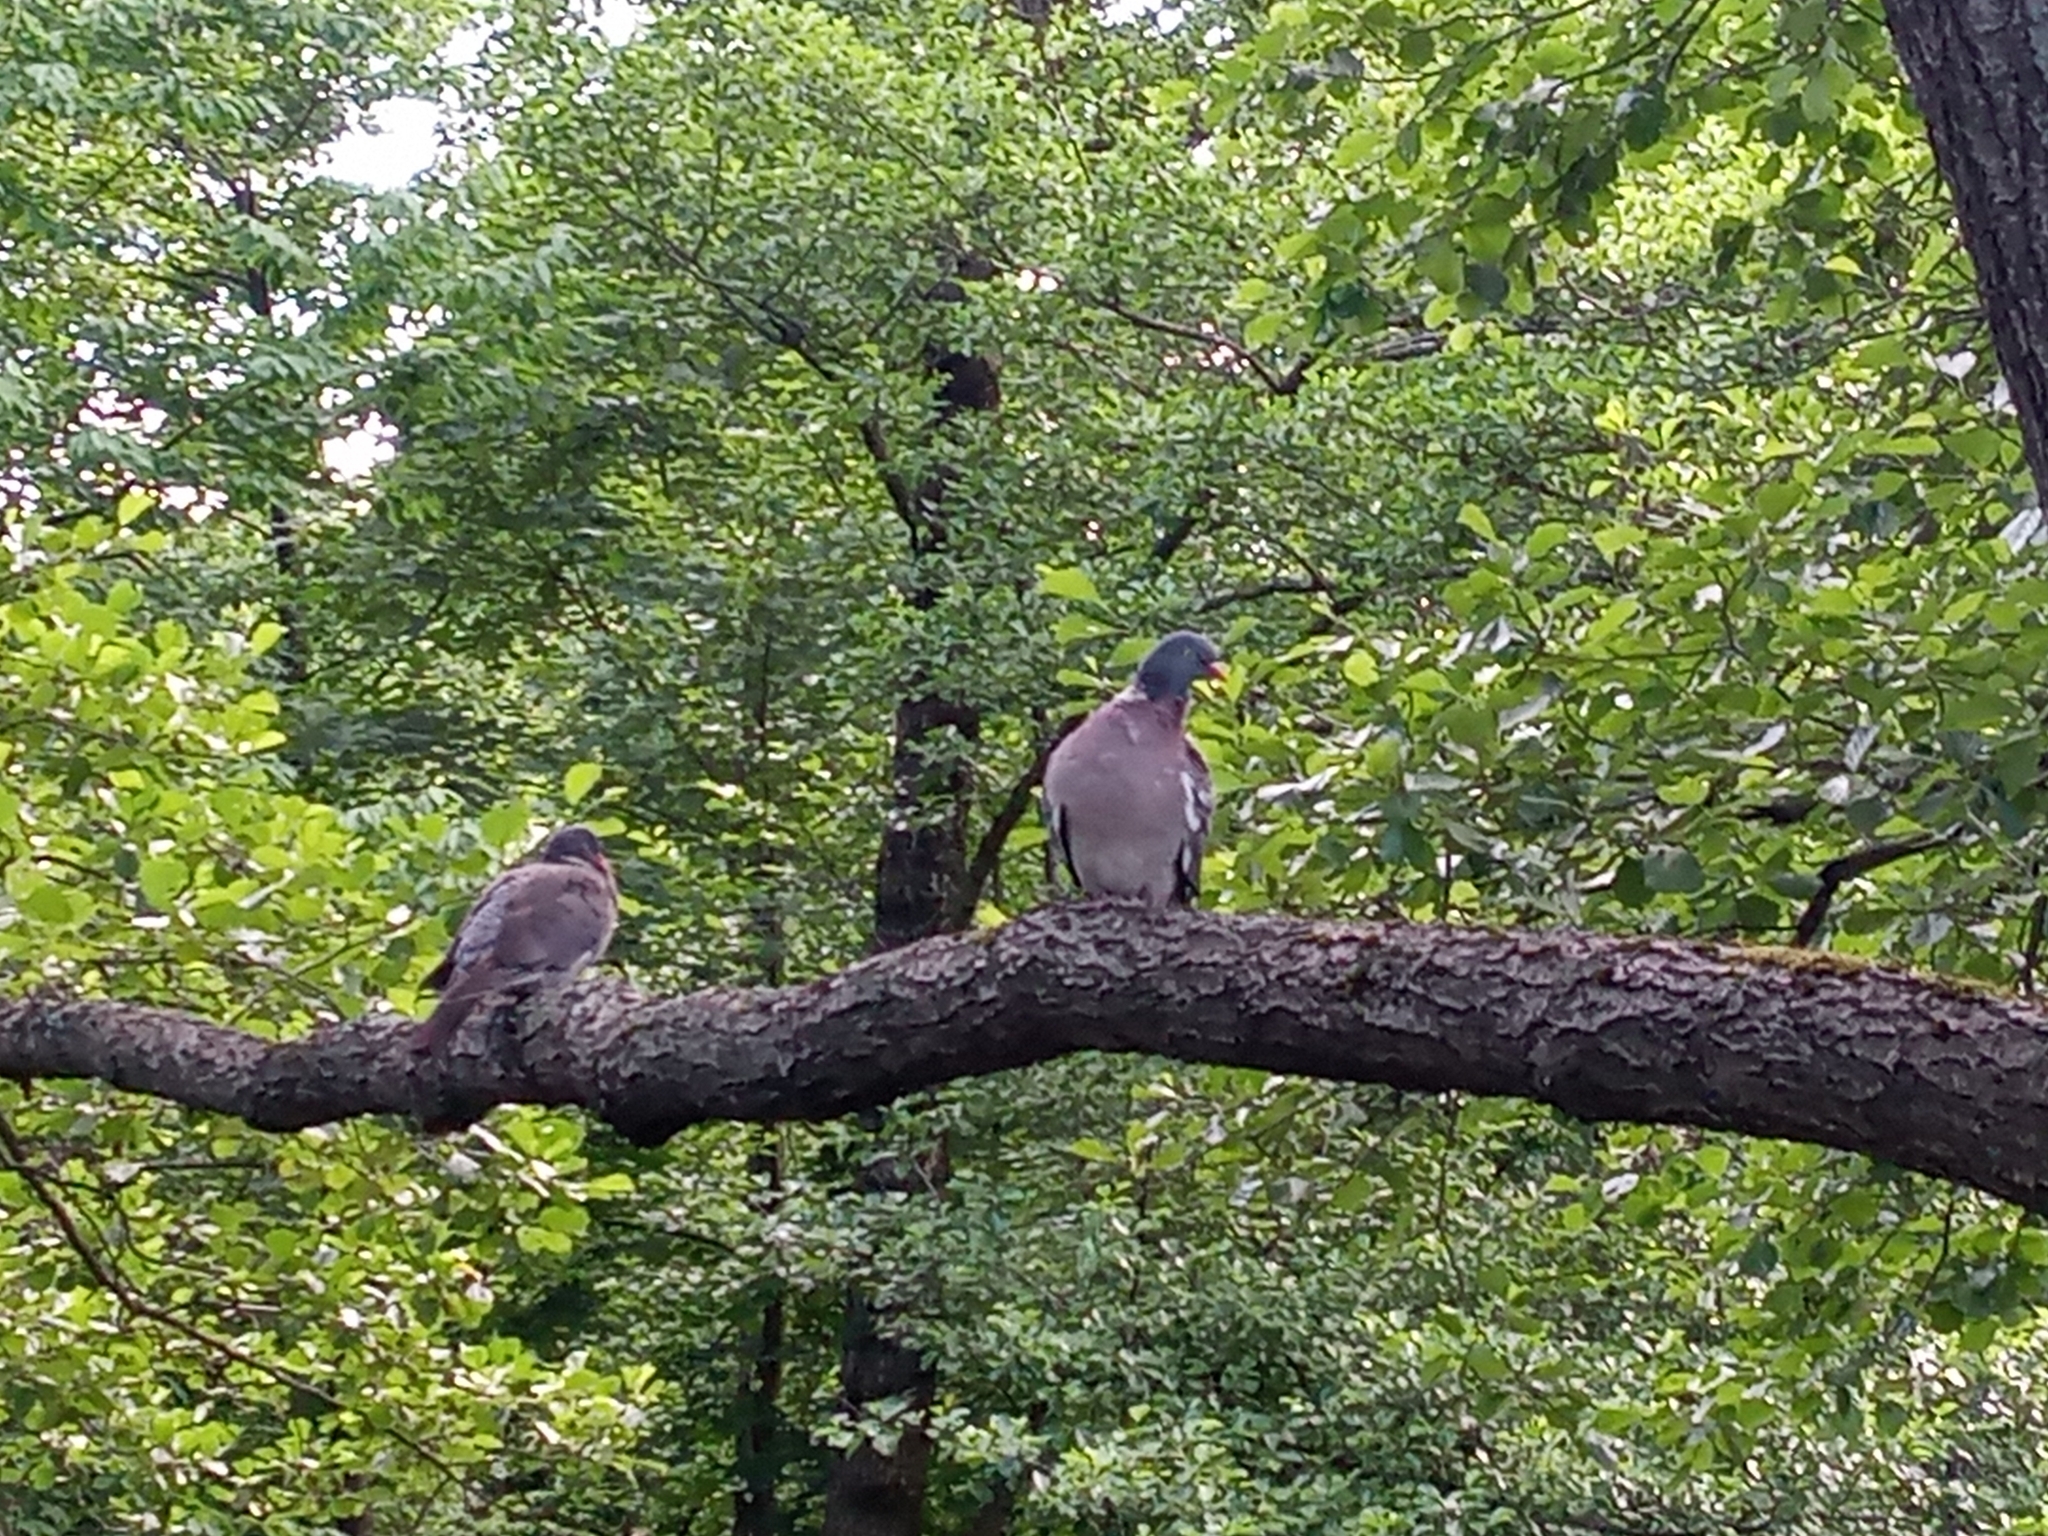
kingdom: Animalia
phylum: Chordata
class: Aves
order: Columbiformes
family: Columbidae
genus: Columba
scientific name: Columba palumbus
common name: Common wood pigeon
